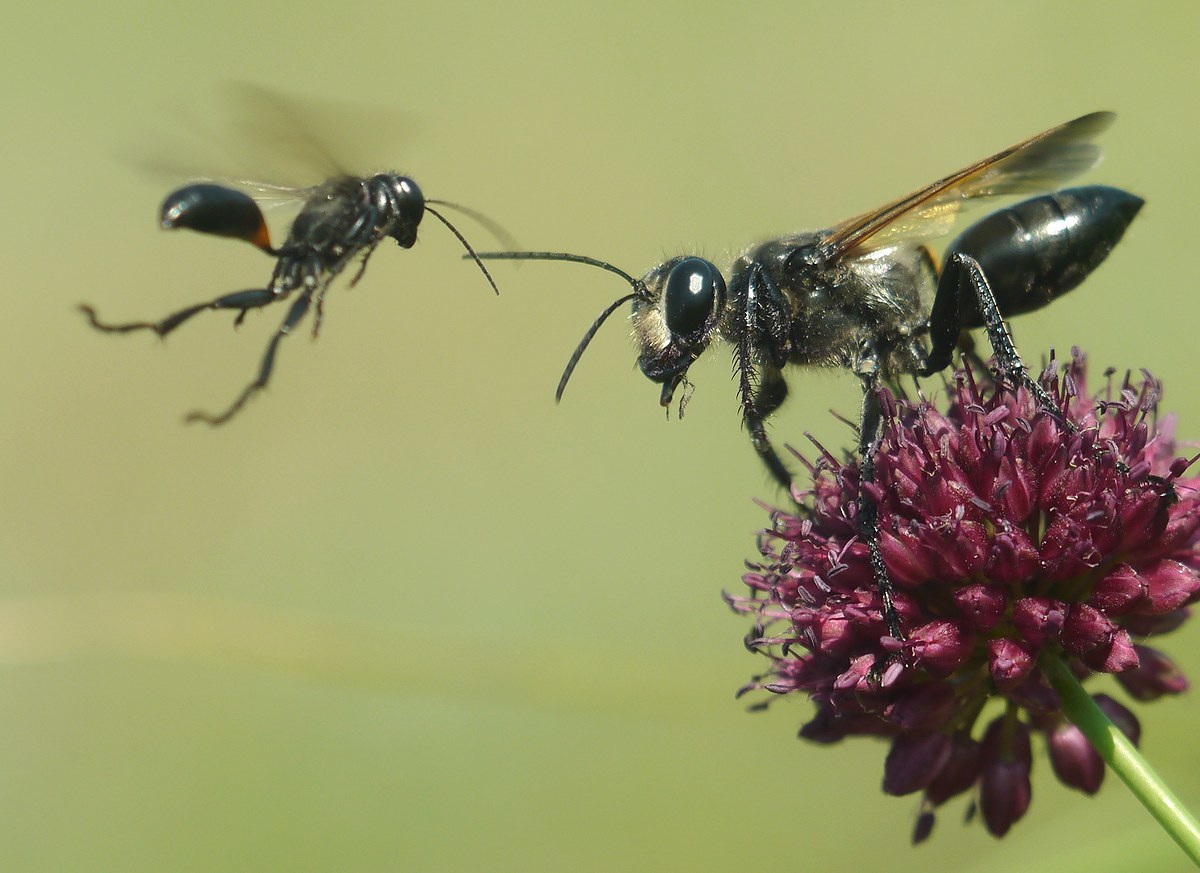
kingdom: Animalia
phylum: Arthropoda
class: Insecta
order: Hymenoptera
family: Sphecidae
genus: Sphex
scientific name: Sphex leuconotus
